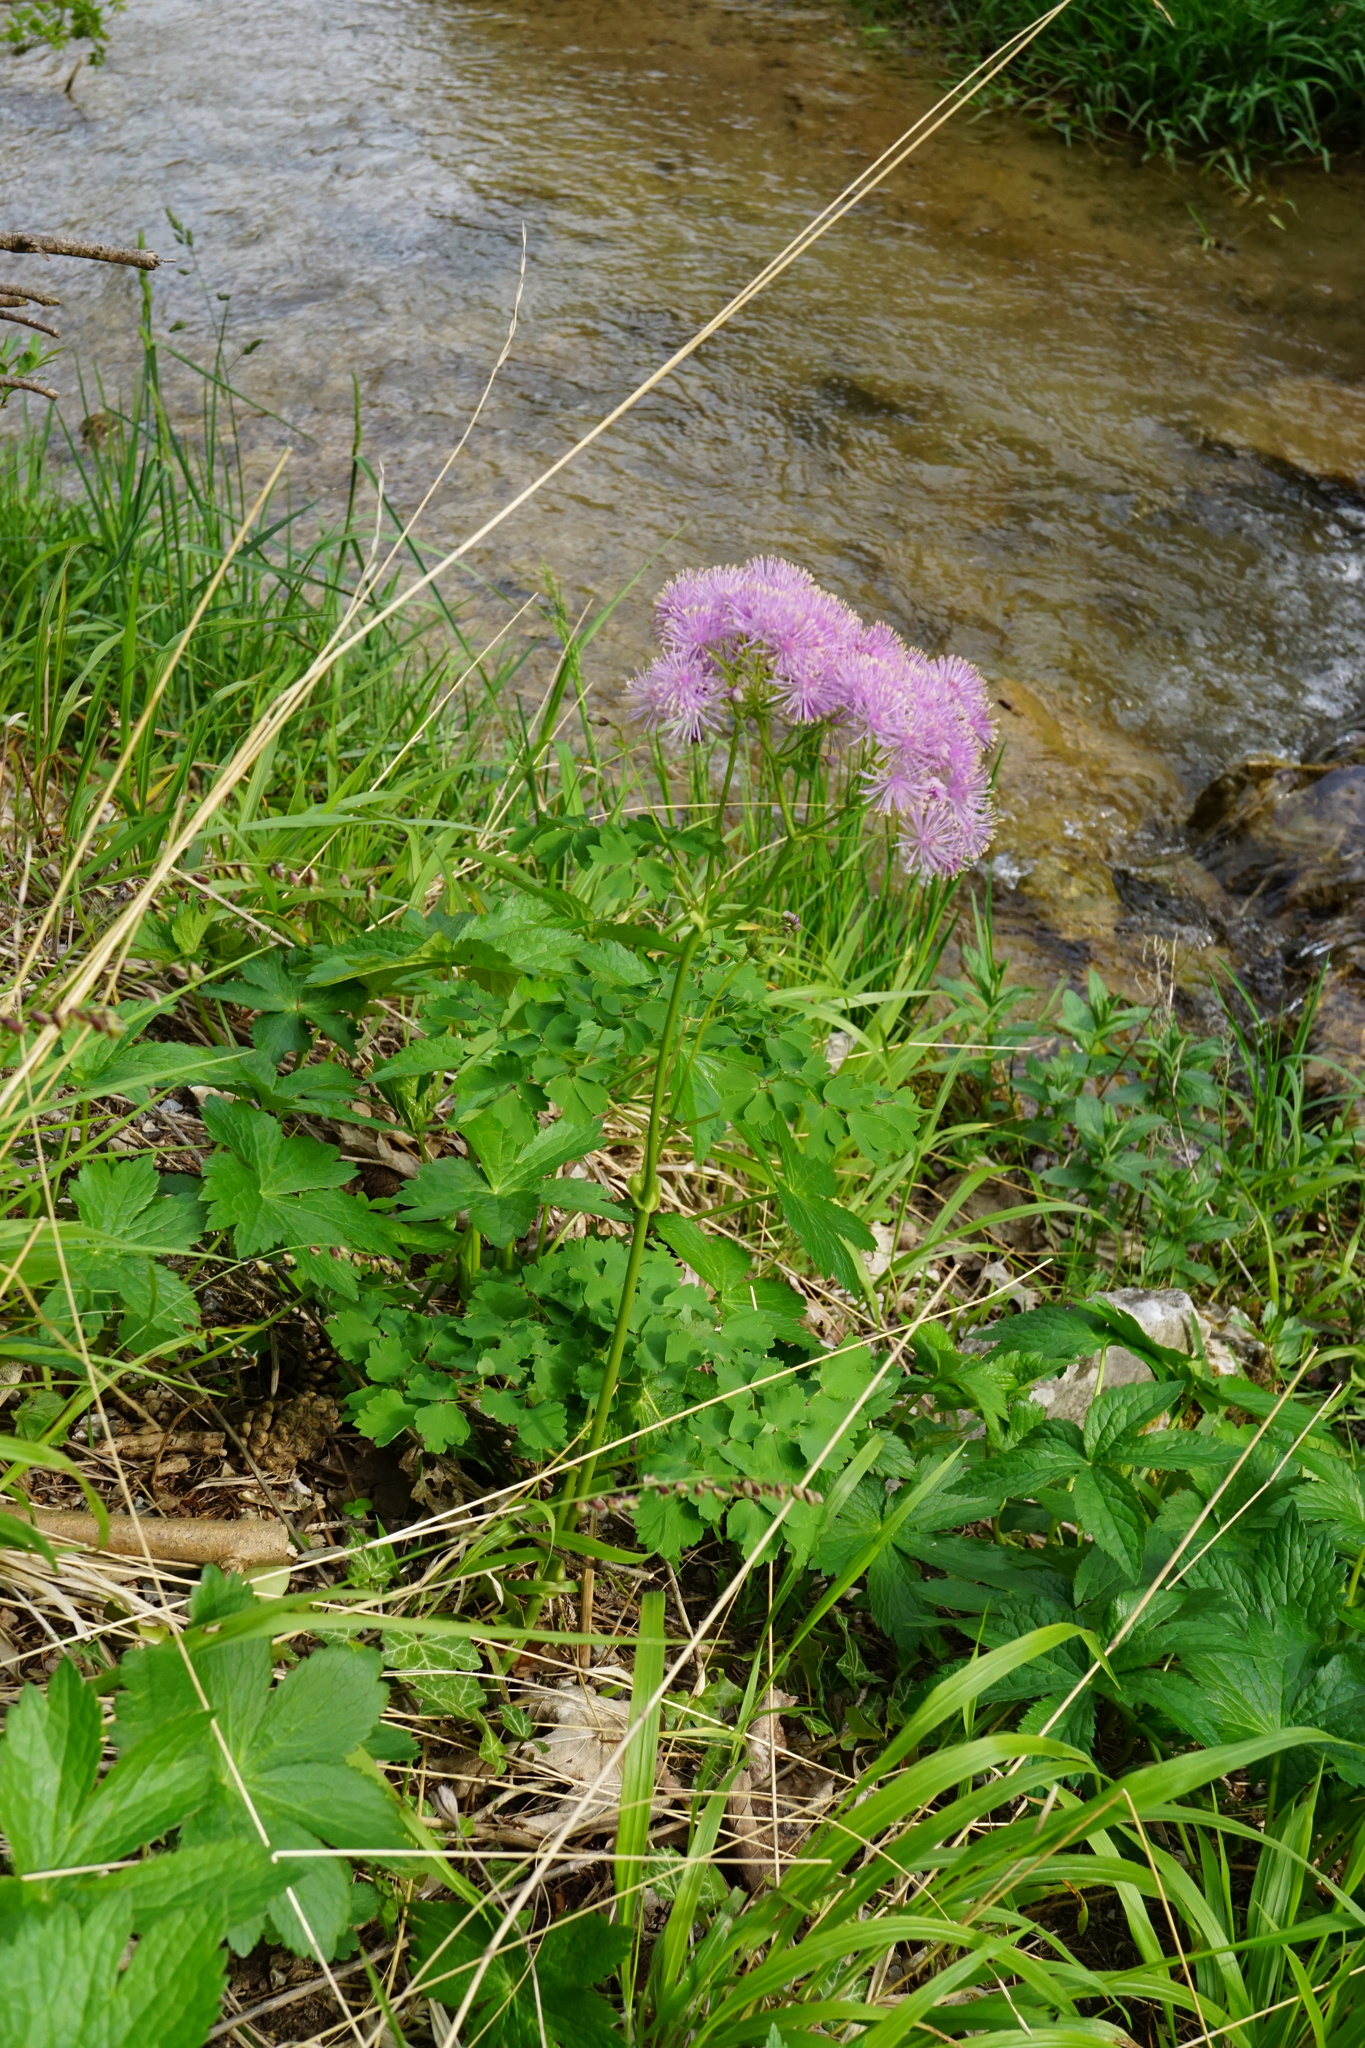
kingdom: Plantae
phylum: Tracheophyta
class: Magnoliopsida
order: Ranunculales
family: Ranunculaceae
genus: Thalictrum
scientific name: Thalictrum aquilegiifolium
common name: French meadow-rue
